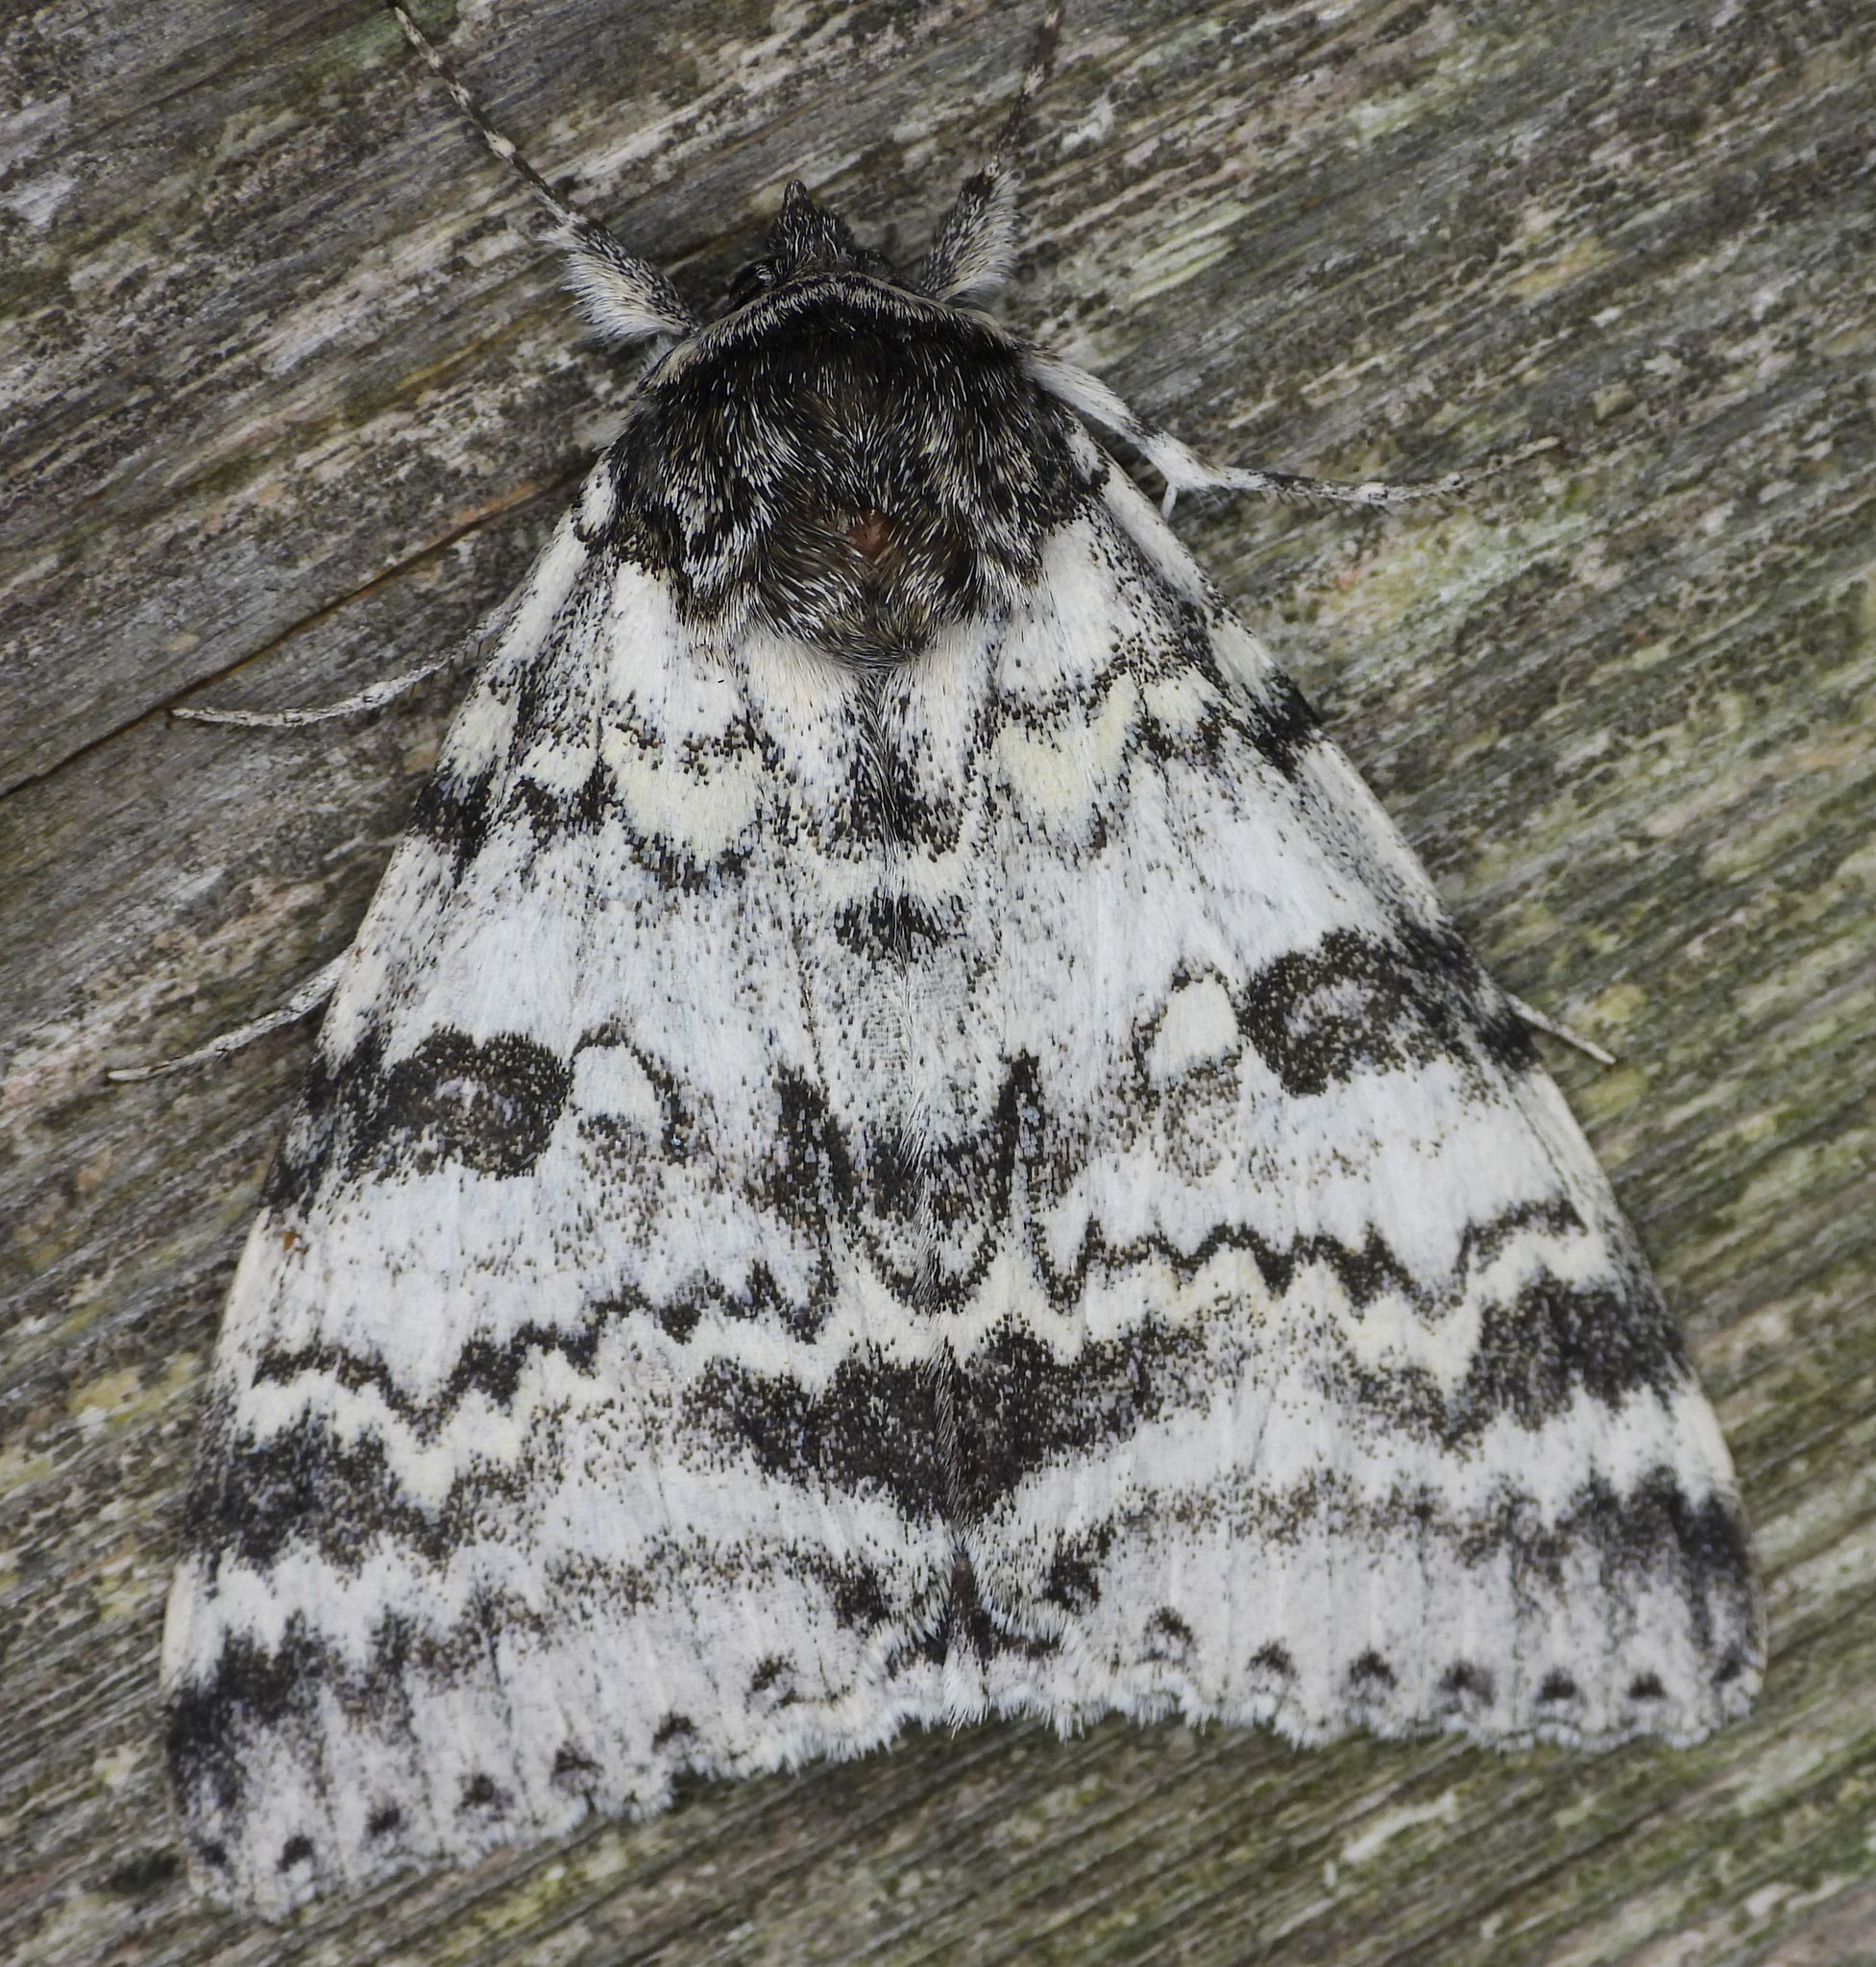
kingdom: Animalia
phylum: Arthropoda
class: Insecta
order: Lepidoptera
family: Erebidae
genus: Catocala
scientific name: Catocala relicta
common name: White underwing
